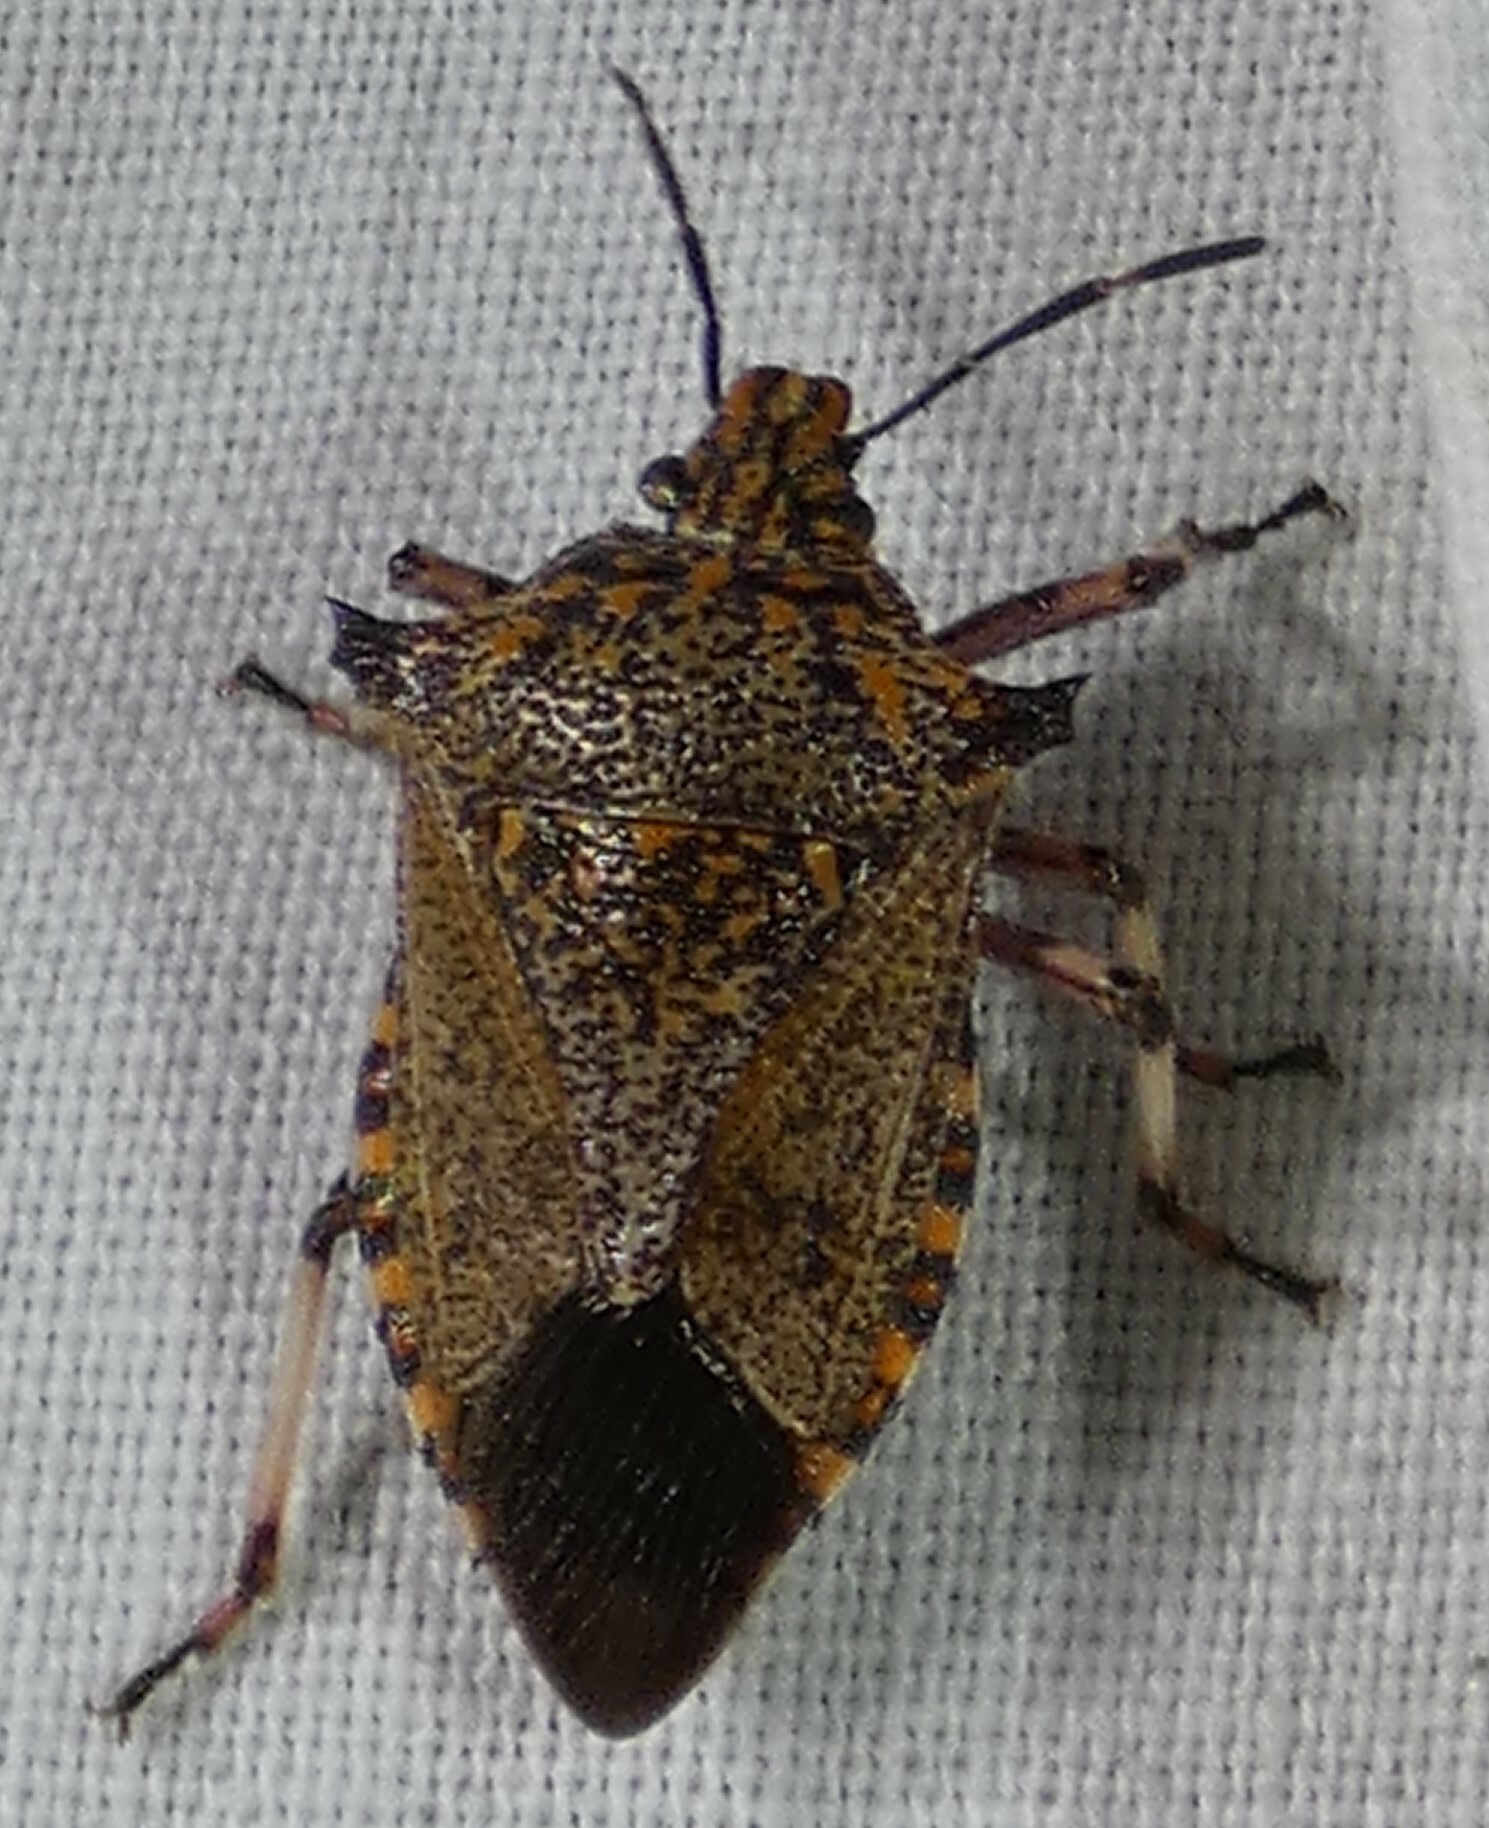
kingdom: Animalia
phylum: Arthropoda
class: Insecta
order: Hemiptera
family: Pentatomidae
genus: Alcaeorrhynchus
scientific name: Alcaeorrhynchus grandis
